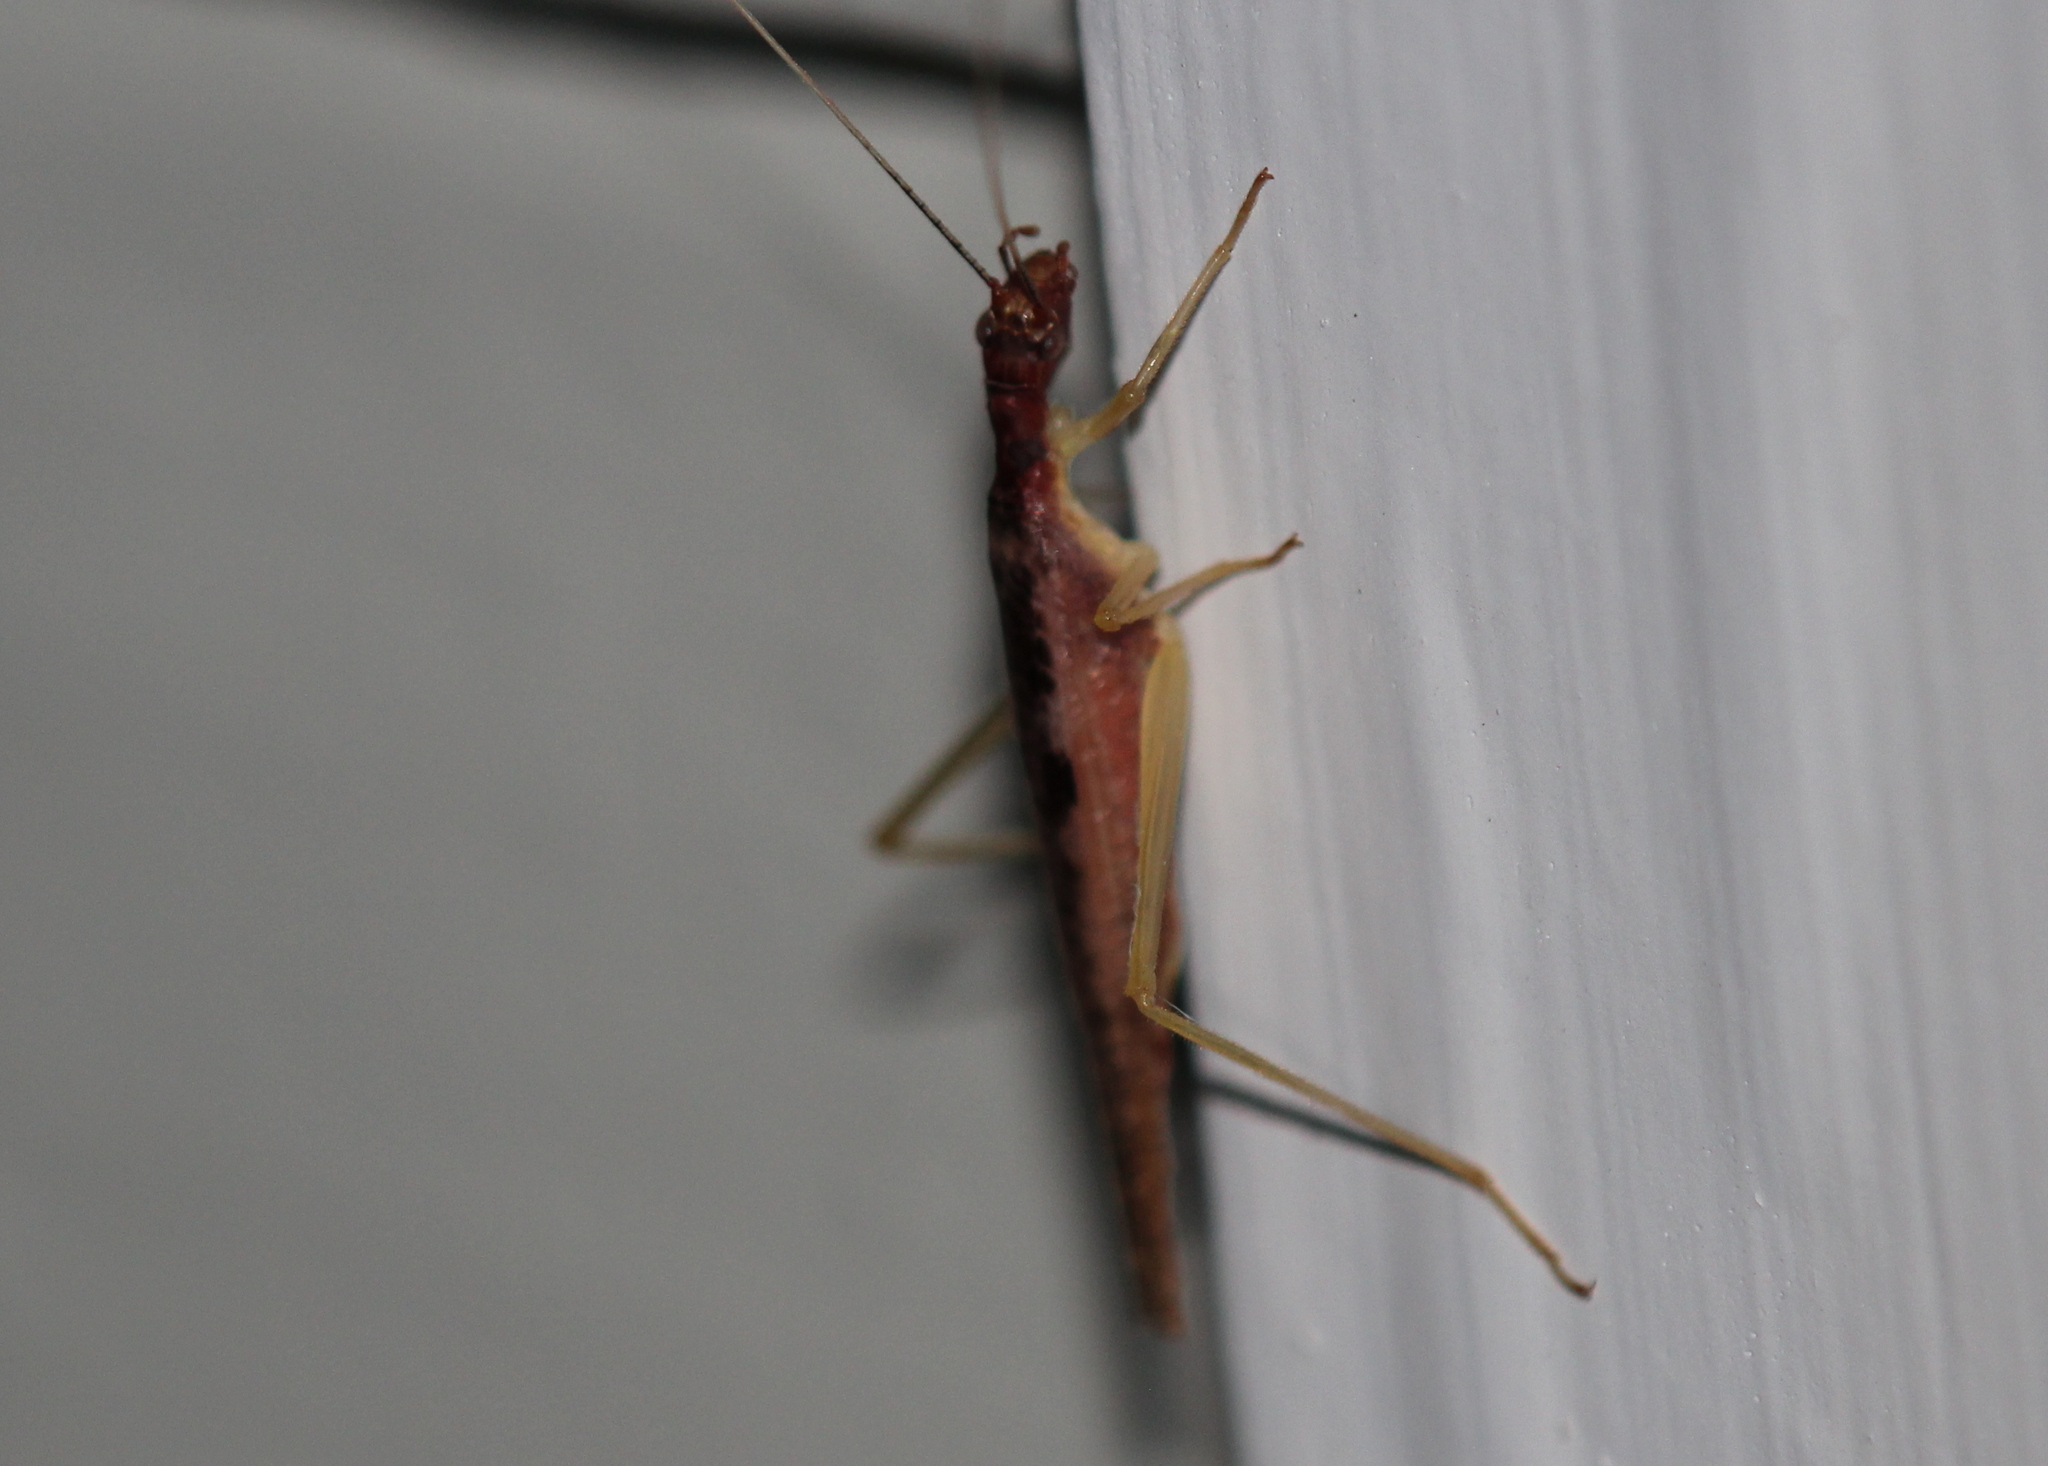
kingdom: Animalia
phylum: Arthropoda
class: Insecta
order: Orthoptera
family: Gryllidae
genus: Neoxabea
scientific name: Neoxabea bipunctata
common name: Two-spotted tree cricket
